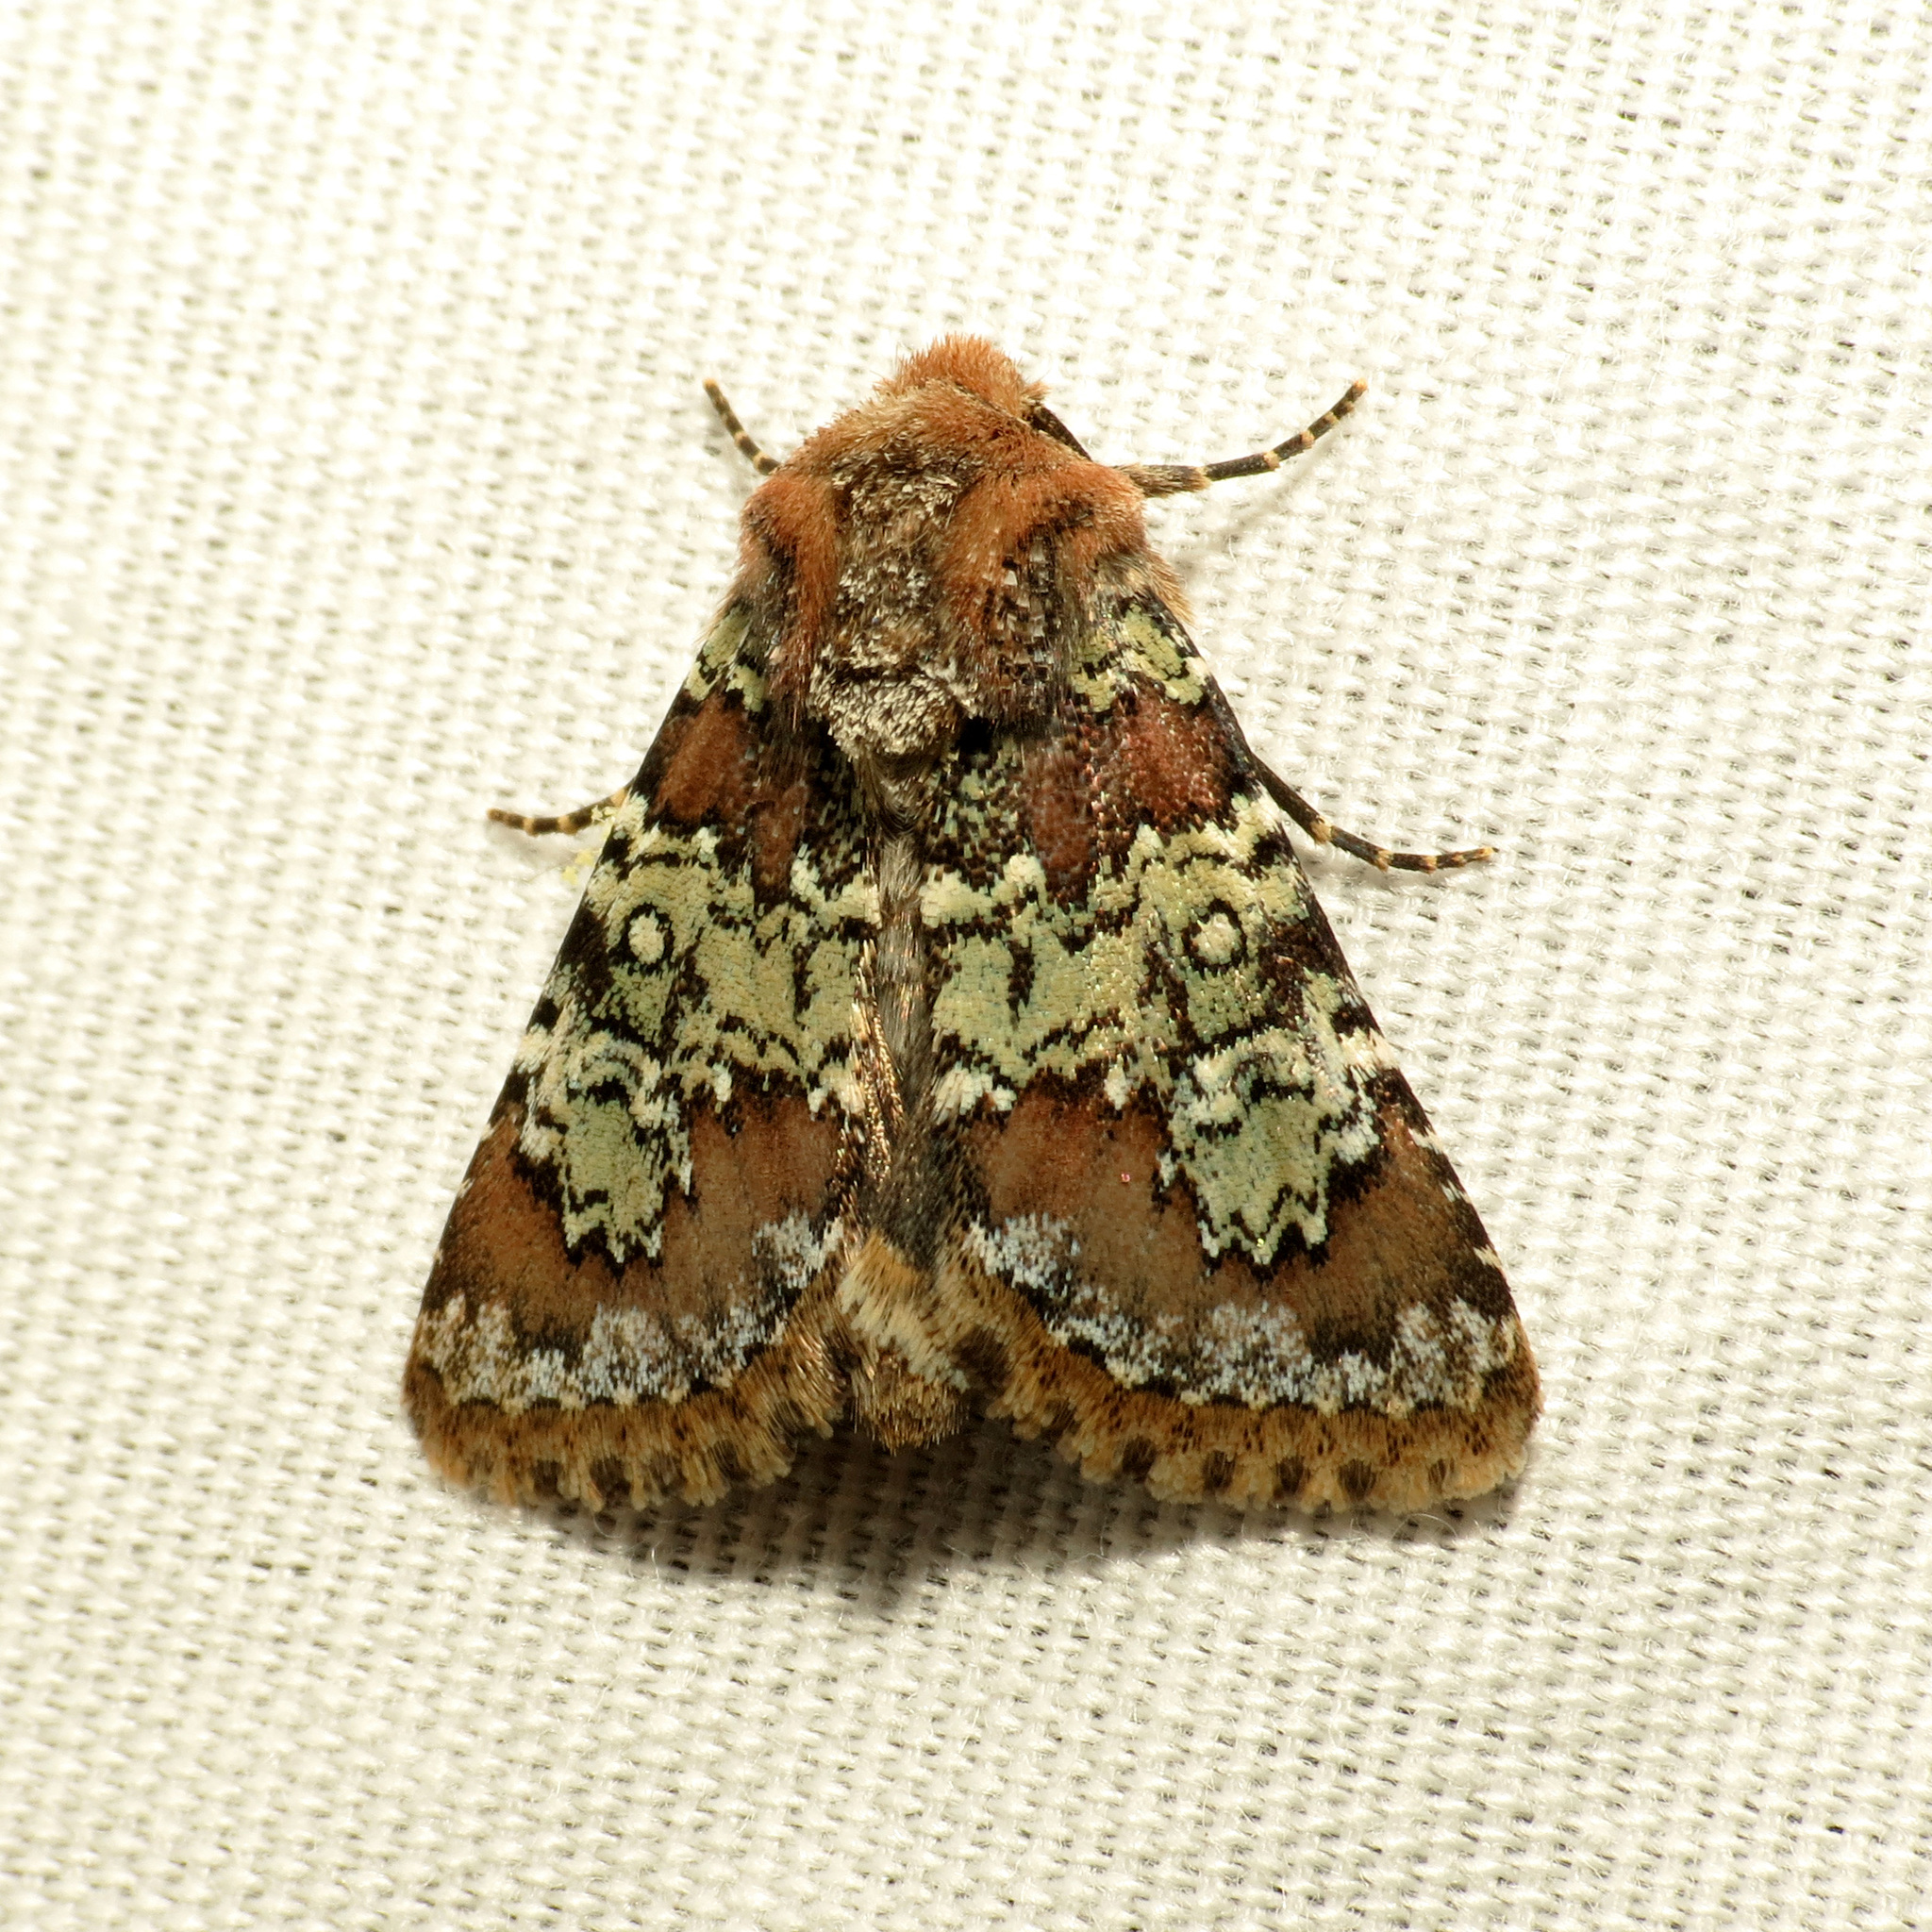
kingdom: Animalia
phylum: Arthropoda
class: Insecta
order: Lepidoptera
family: Noctuidae
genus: Hemibryomima
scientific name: Hemibryomima chryselectra
